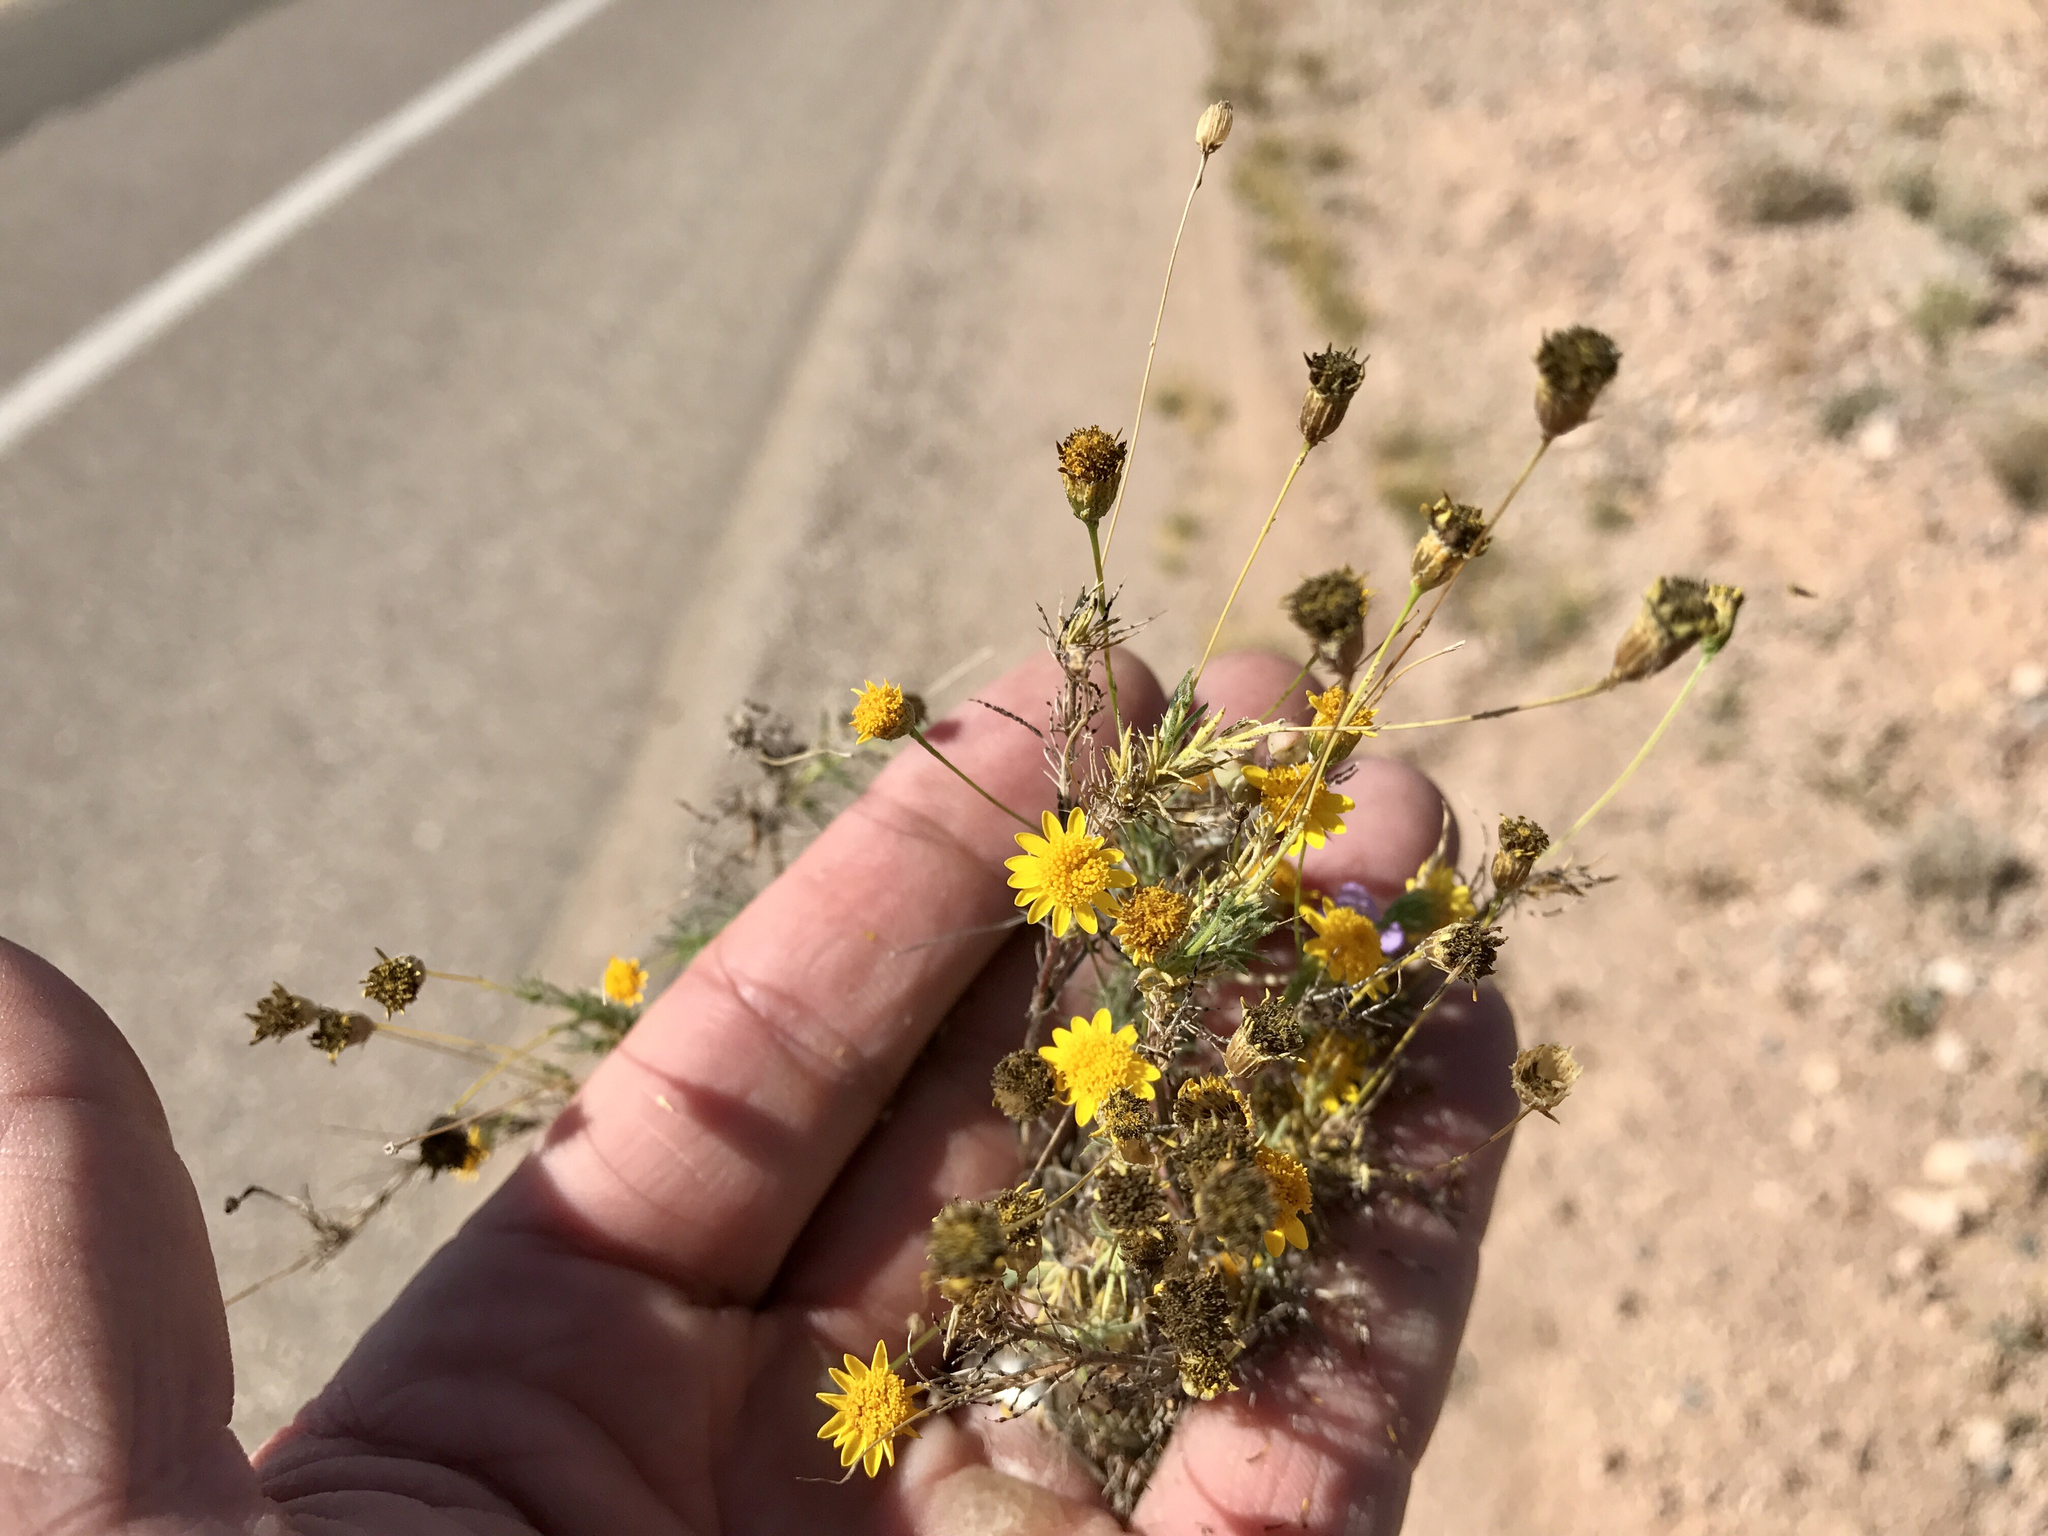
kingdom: Plantae
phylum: Tracheophyta
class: Magnoliopsida
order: Asterales
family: Asteraceae
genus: Thymophylla
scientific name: Thymophylla pentachaeta
